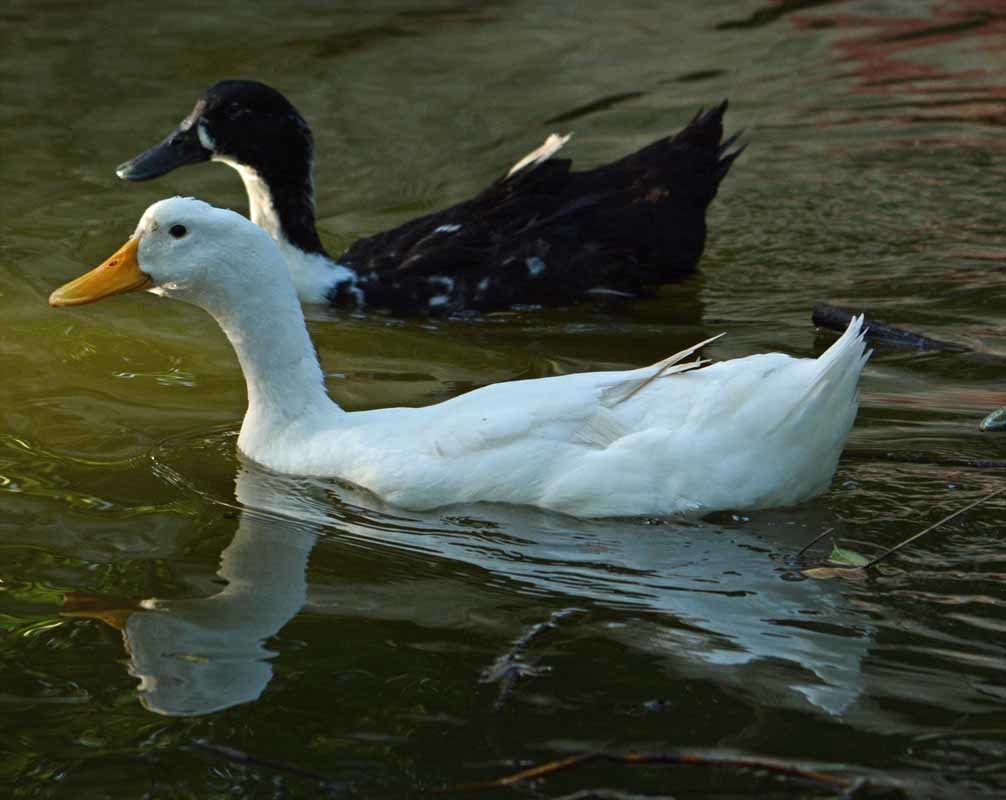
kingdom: Animalia
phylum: Chordata
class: Aves
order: Anseriformes
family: Anatidae
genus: Anas
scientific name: Anas platyrhynchos
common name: Mallard
